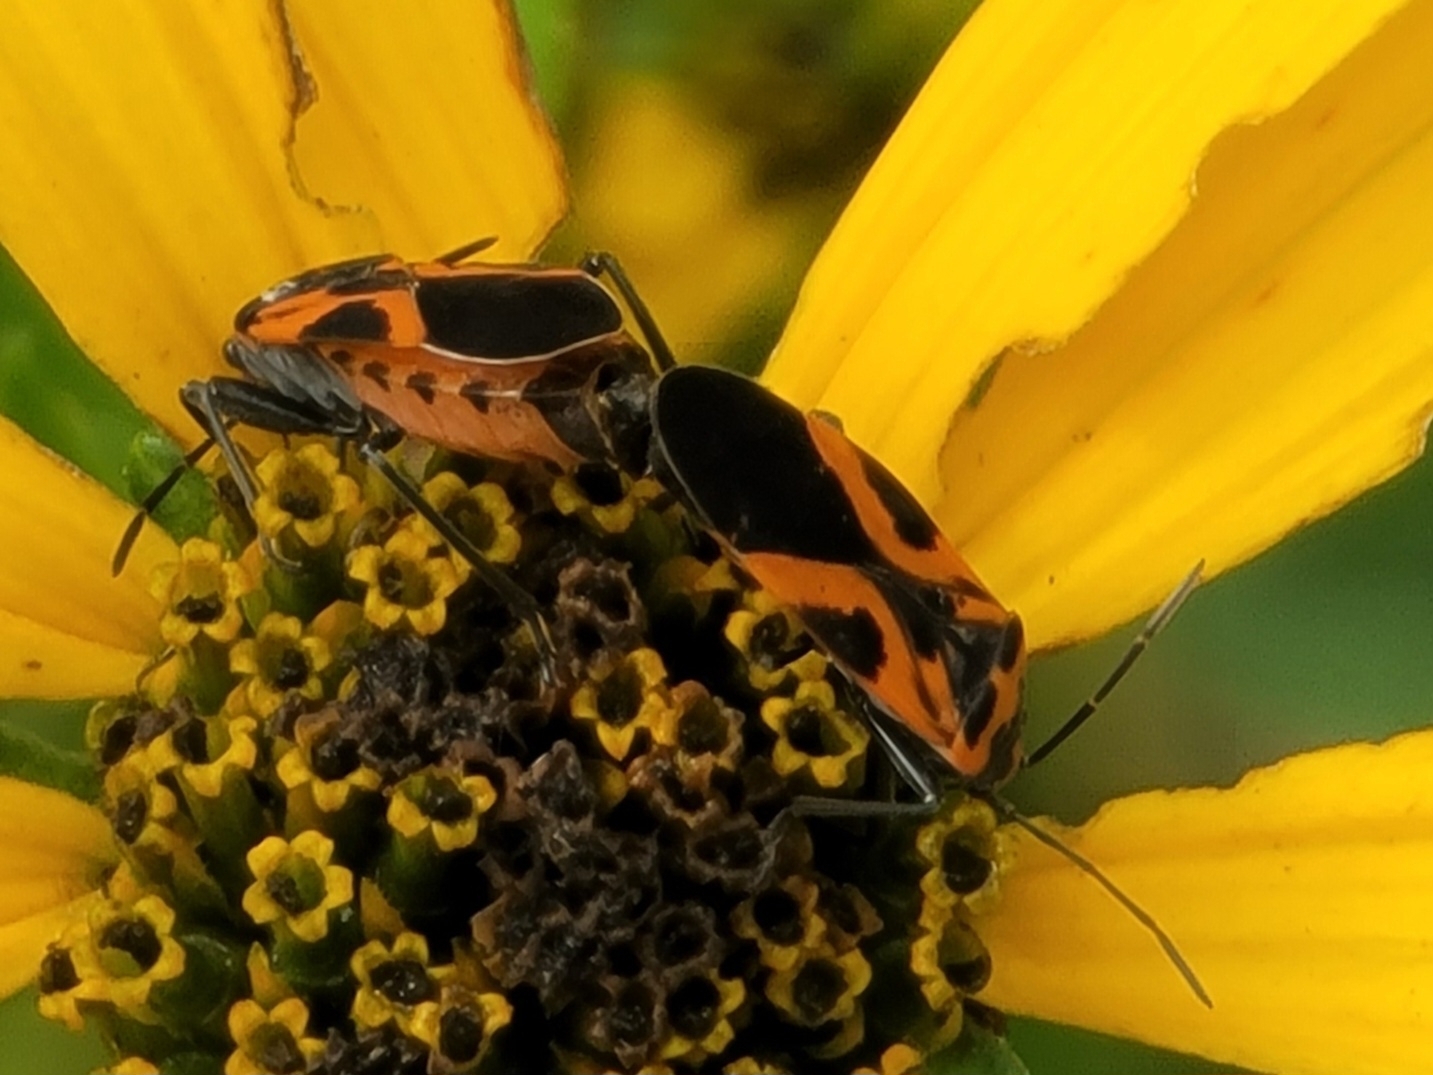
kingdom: Animalia
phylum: Arthropoda
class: Insecta
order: Hemiptera
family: Lygaeidae
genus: Lygaeus
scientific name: Lygaeus turcicus
